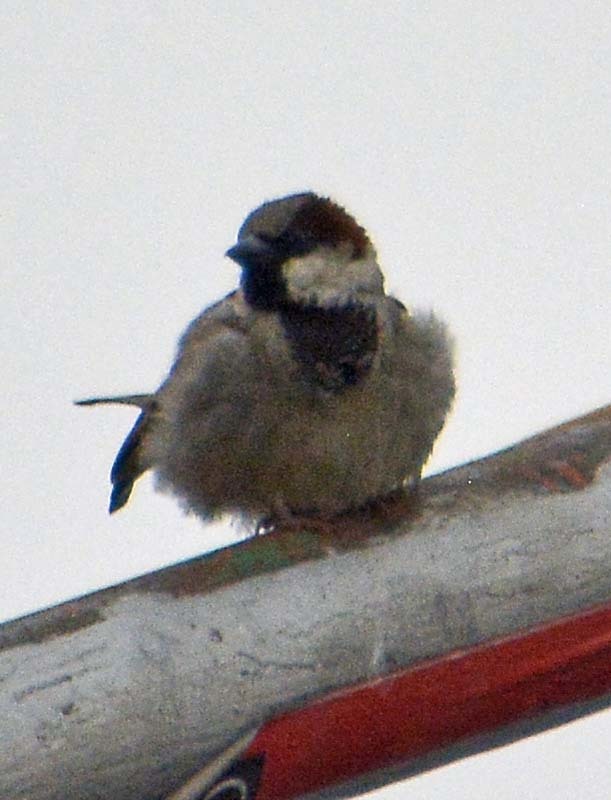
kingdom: Animalia
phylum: Chordata
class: Aves
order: Passeriformes
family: Passeridae
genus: Passer
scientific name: Passer domesticus
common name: House sparrow
